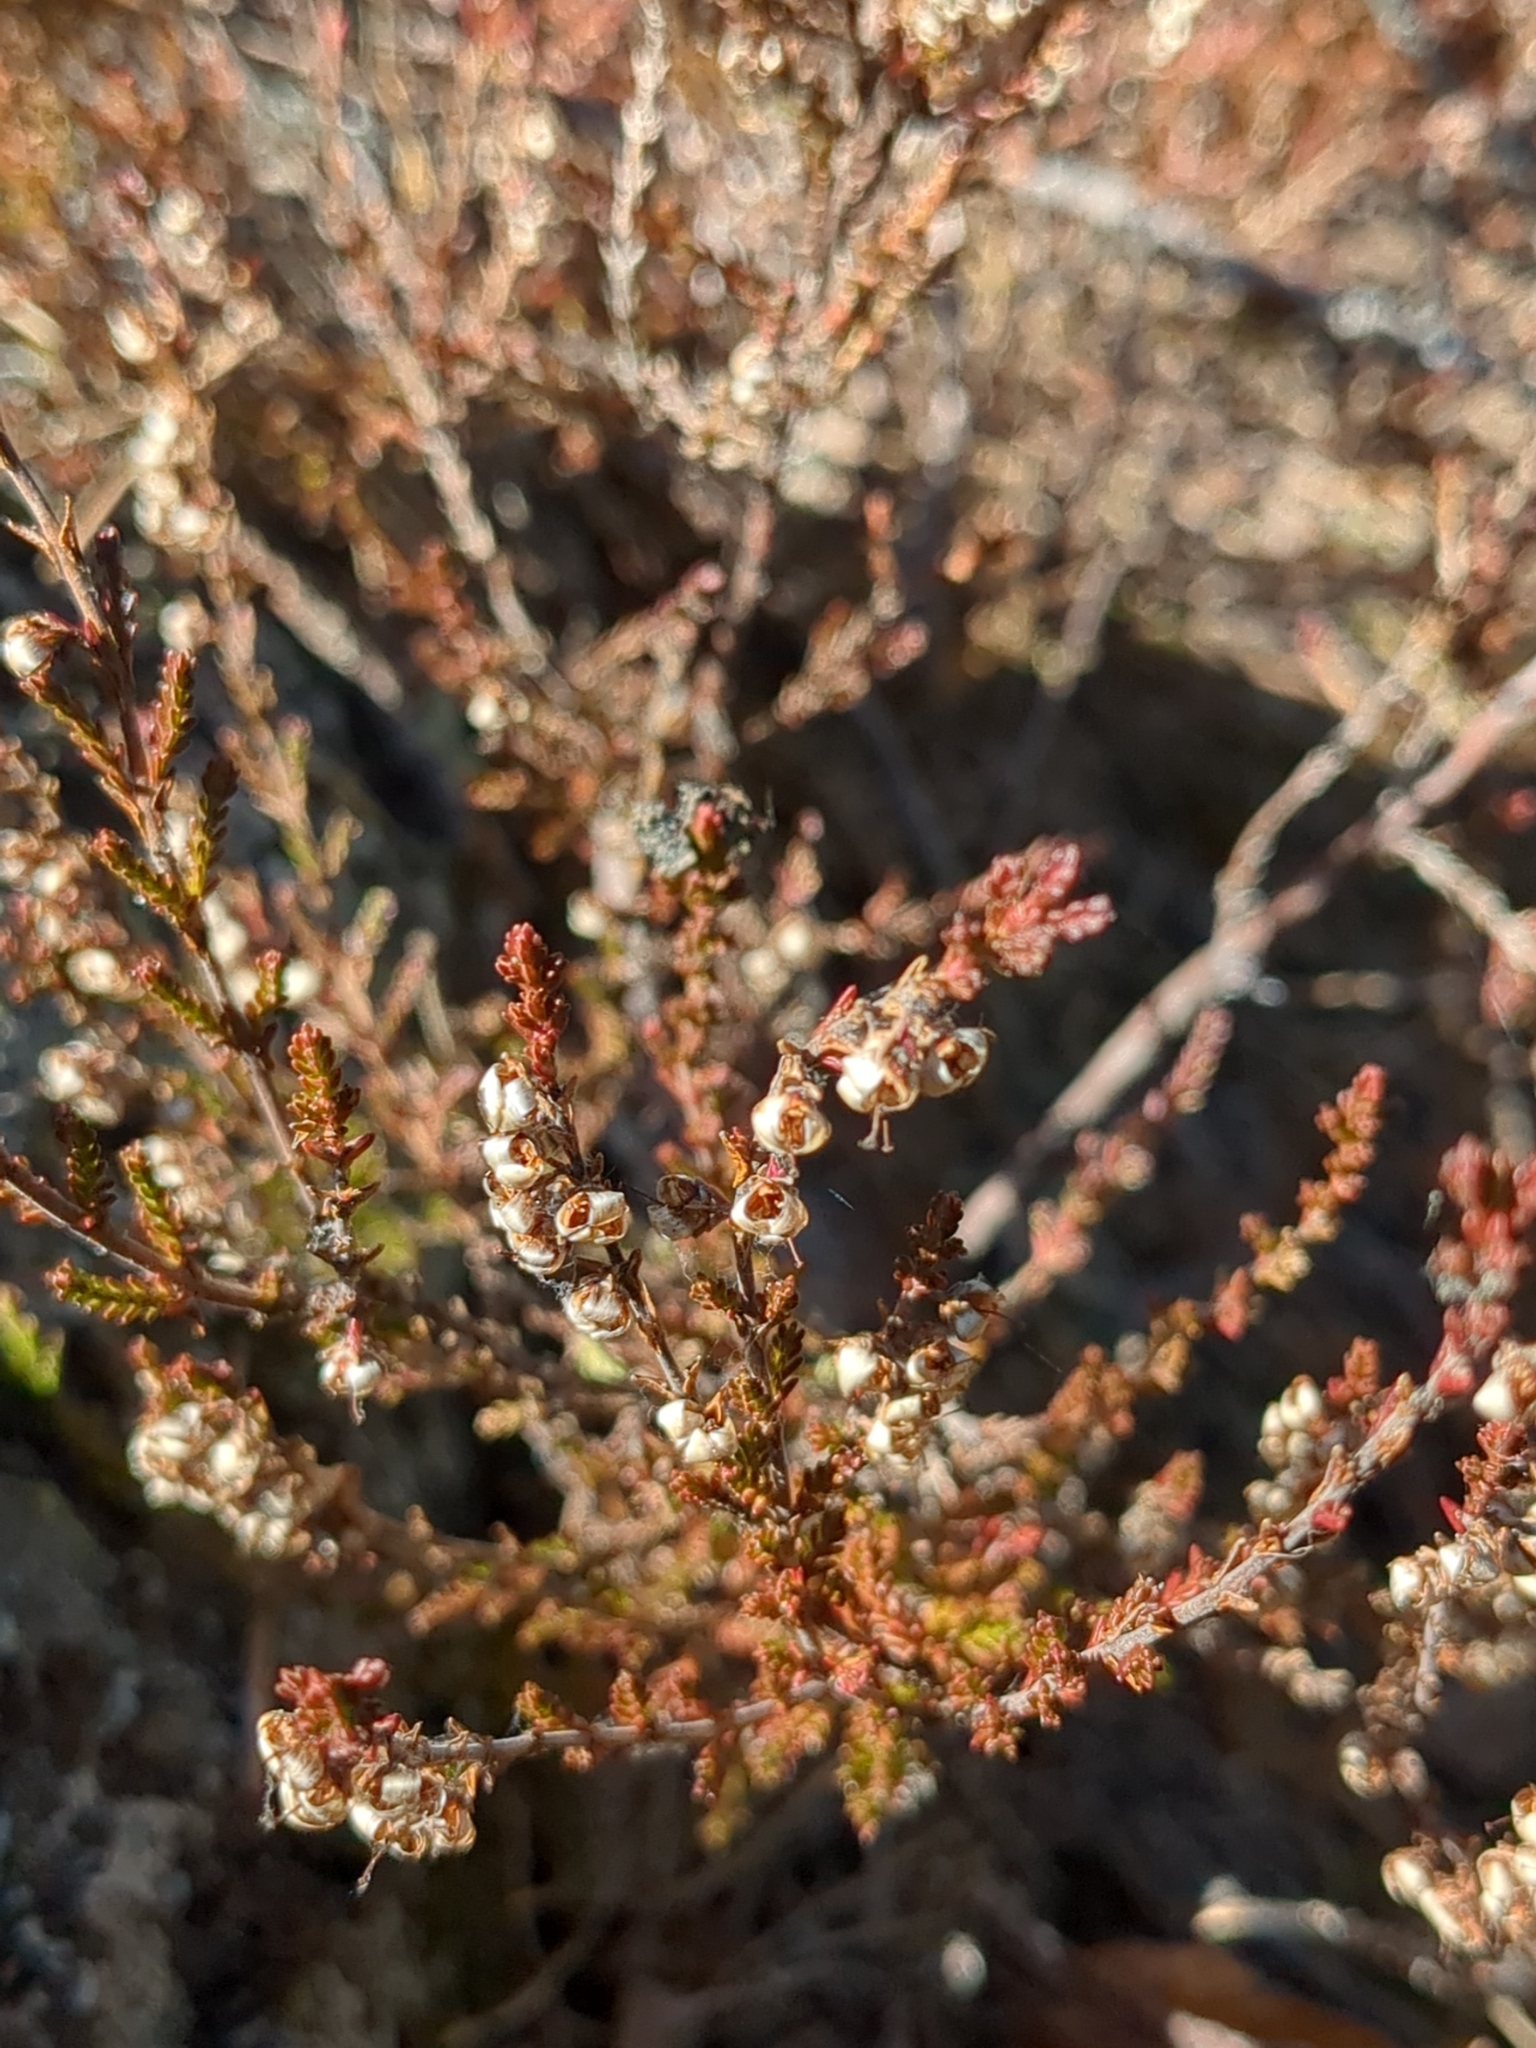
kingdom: Plantae
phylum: Tracheophyta
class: Magnoliopsida
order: Ericales
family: Ericaceae
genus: Calluna
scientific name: Calluna vulgaris
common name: Heather
